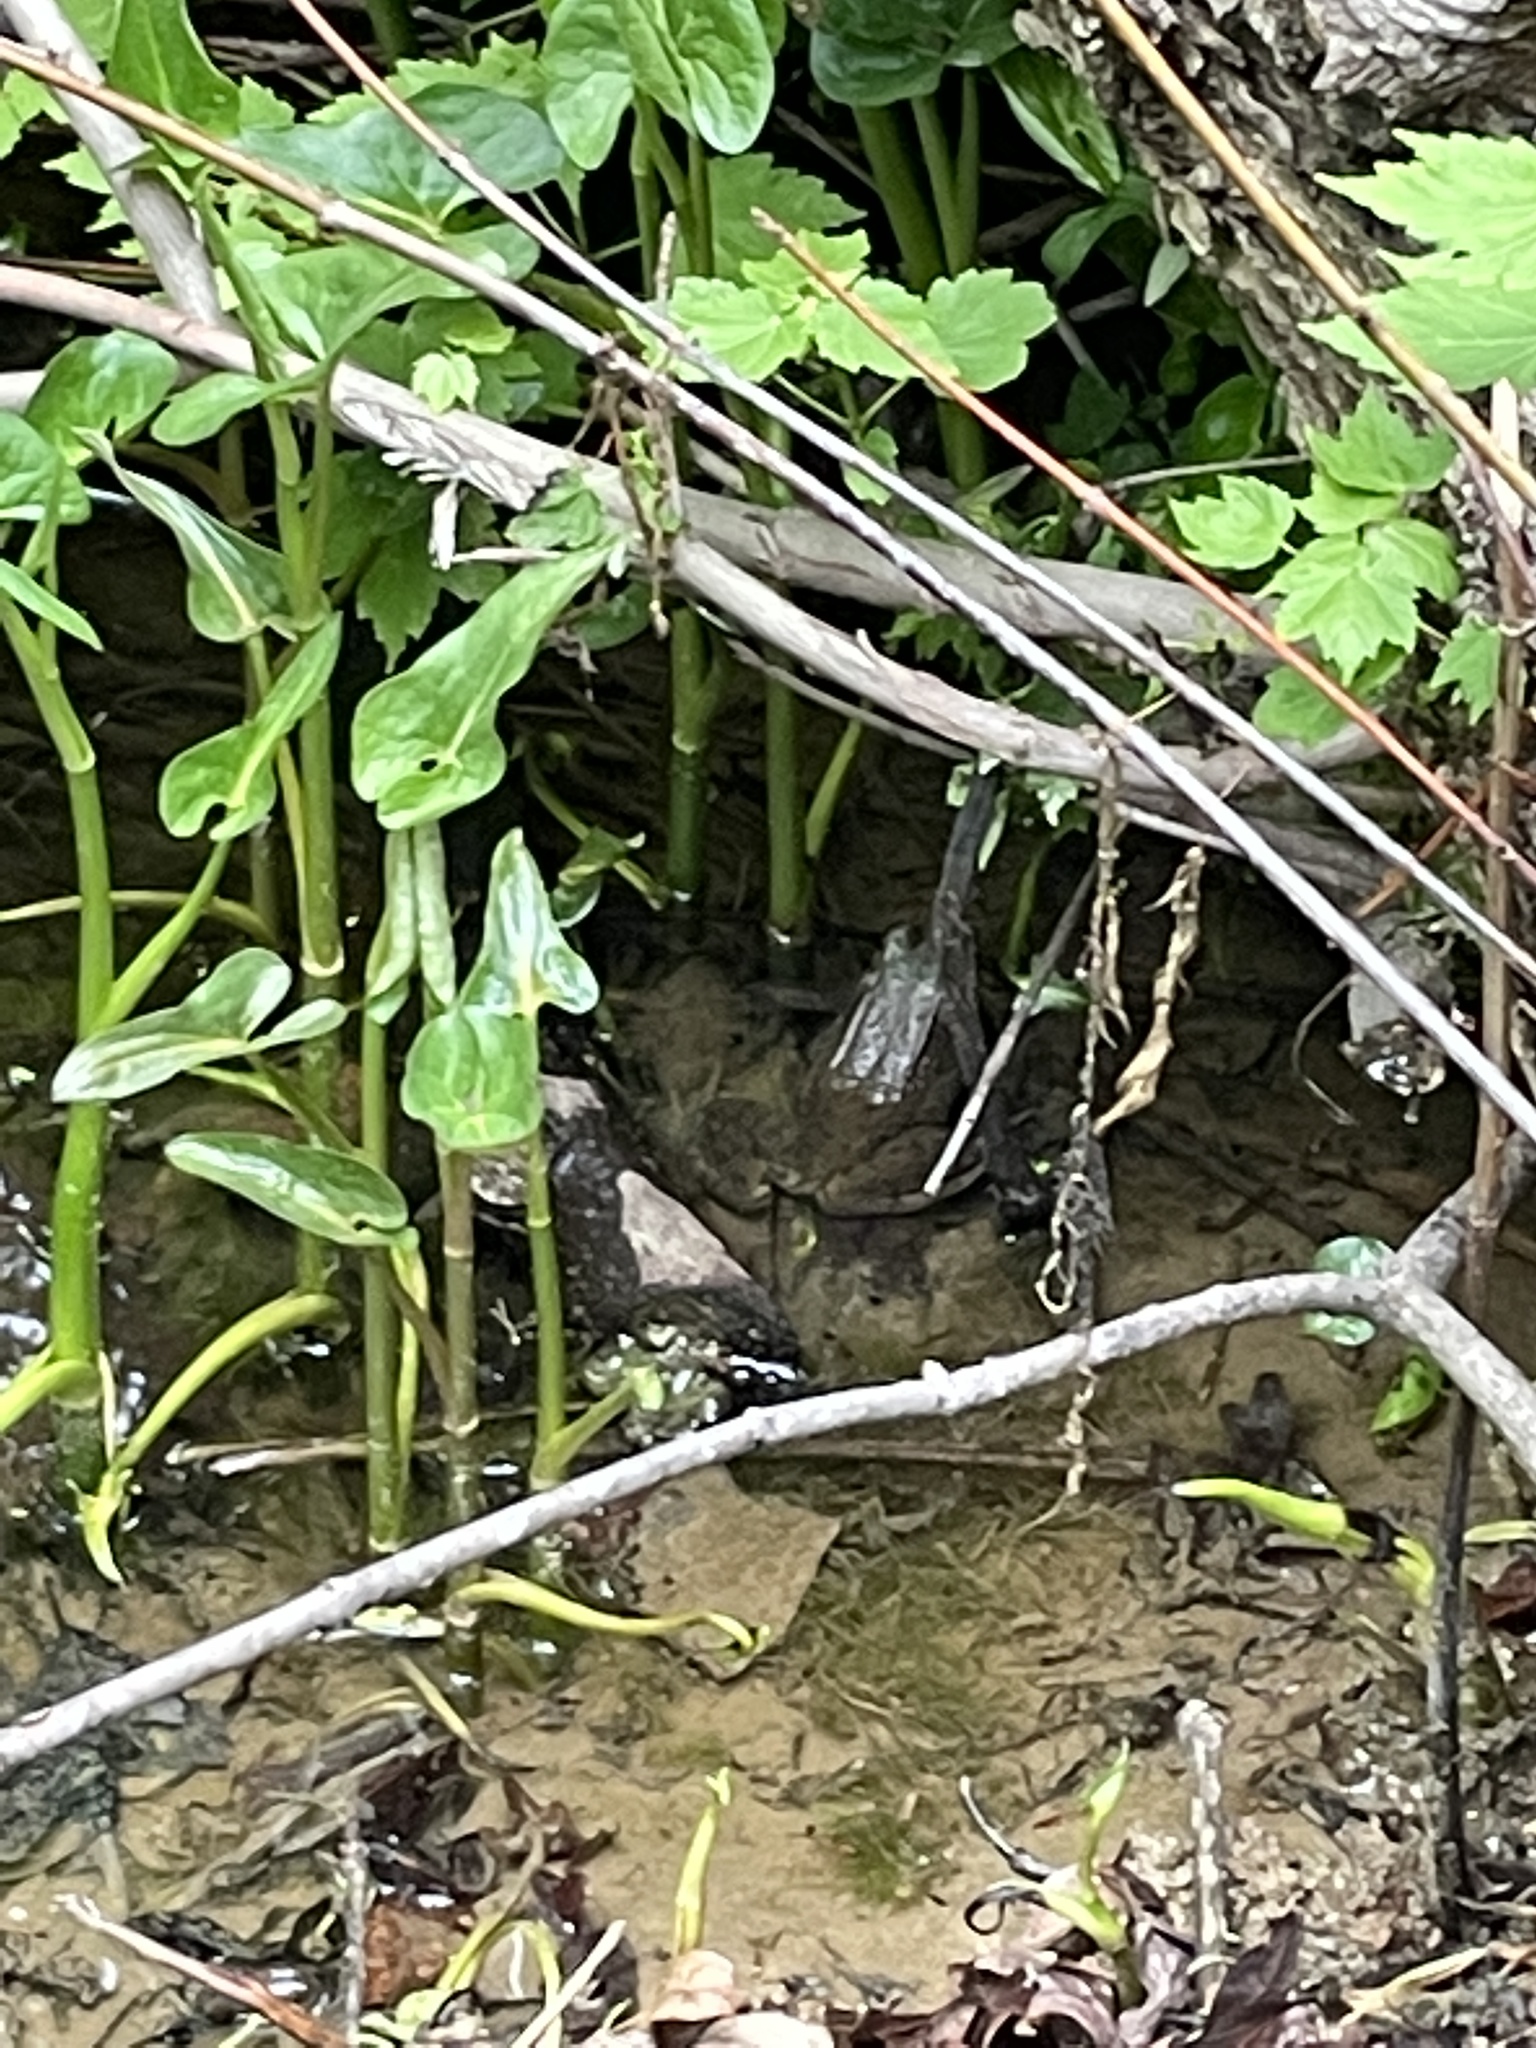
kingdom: Animalia
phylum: Chordata
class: Amphibia
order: Anura
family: Ranidae
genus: Lithobates
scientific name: Lithobates clamitans
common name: Green frog
